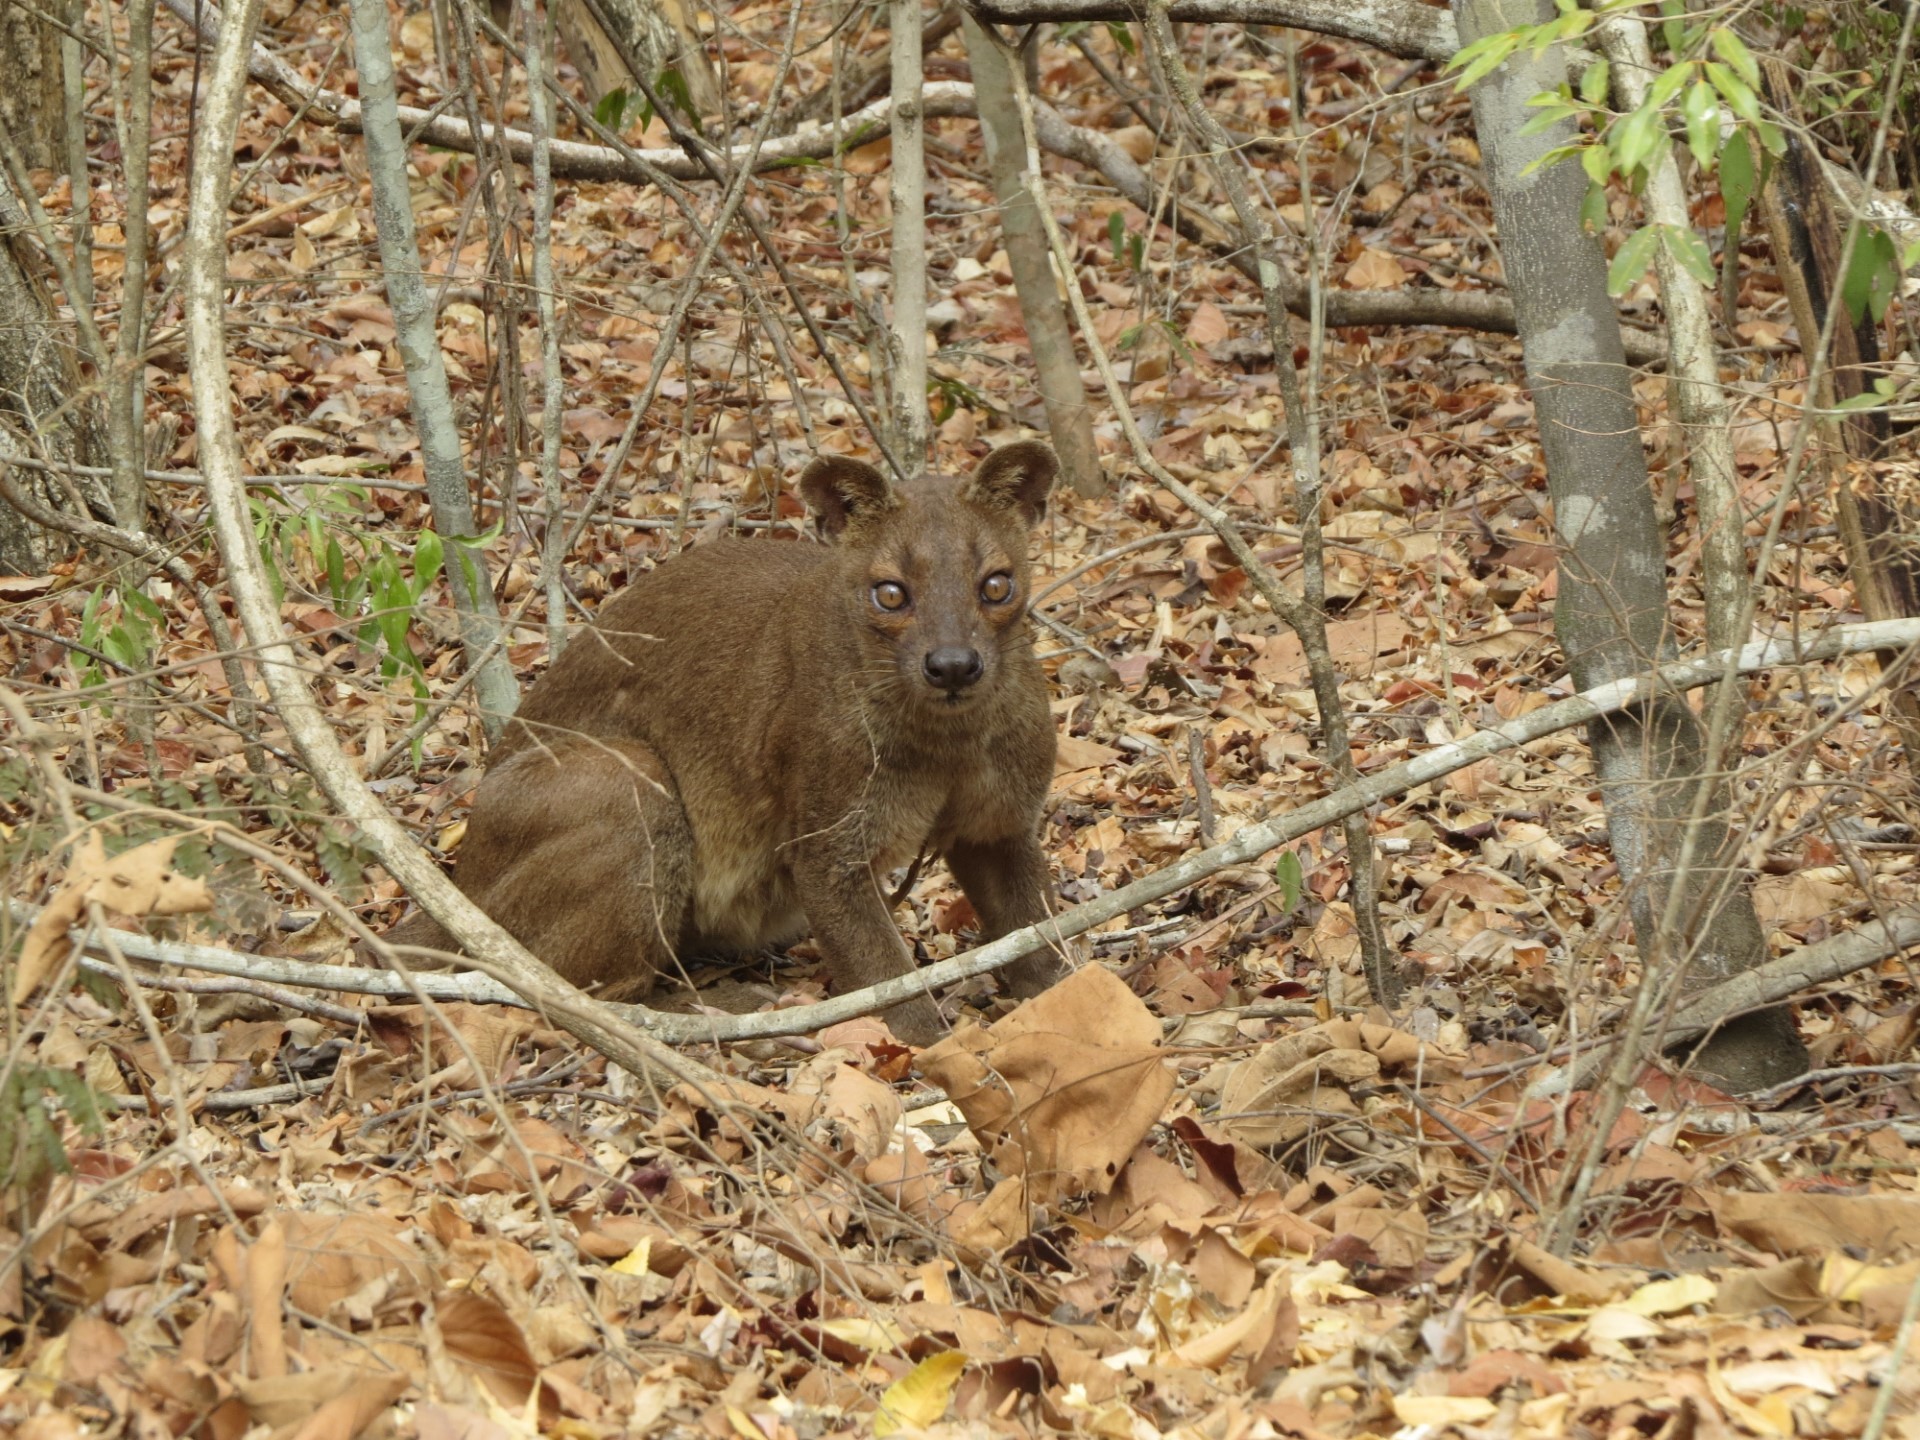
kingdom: Animalia
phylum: Chordata
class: Mammalia
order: Carnivora
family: Eupleridae
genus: Cryptoprocta
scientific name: Cryptoprocta ferox
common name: Fossa
